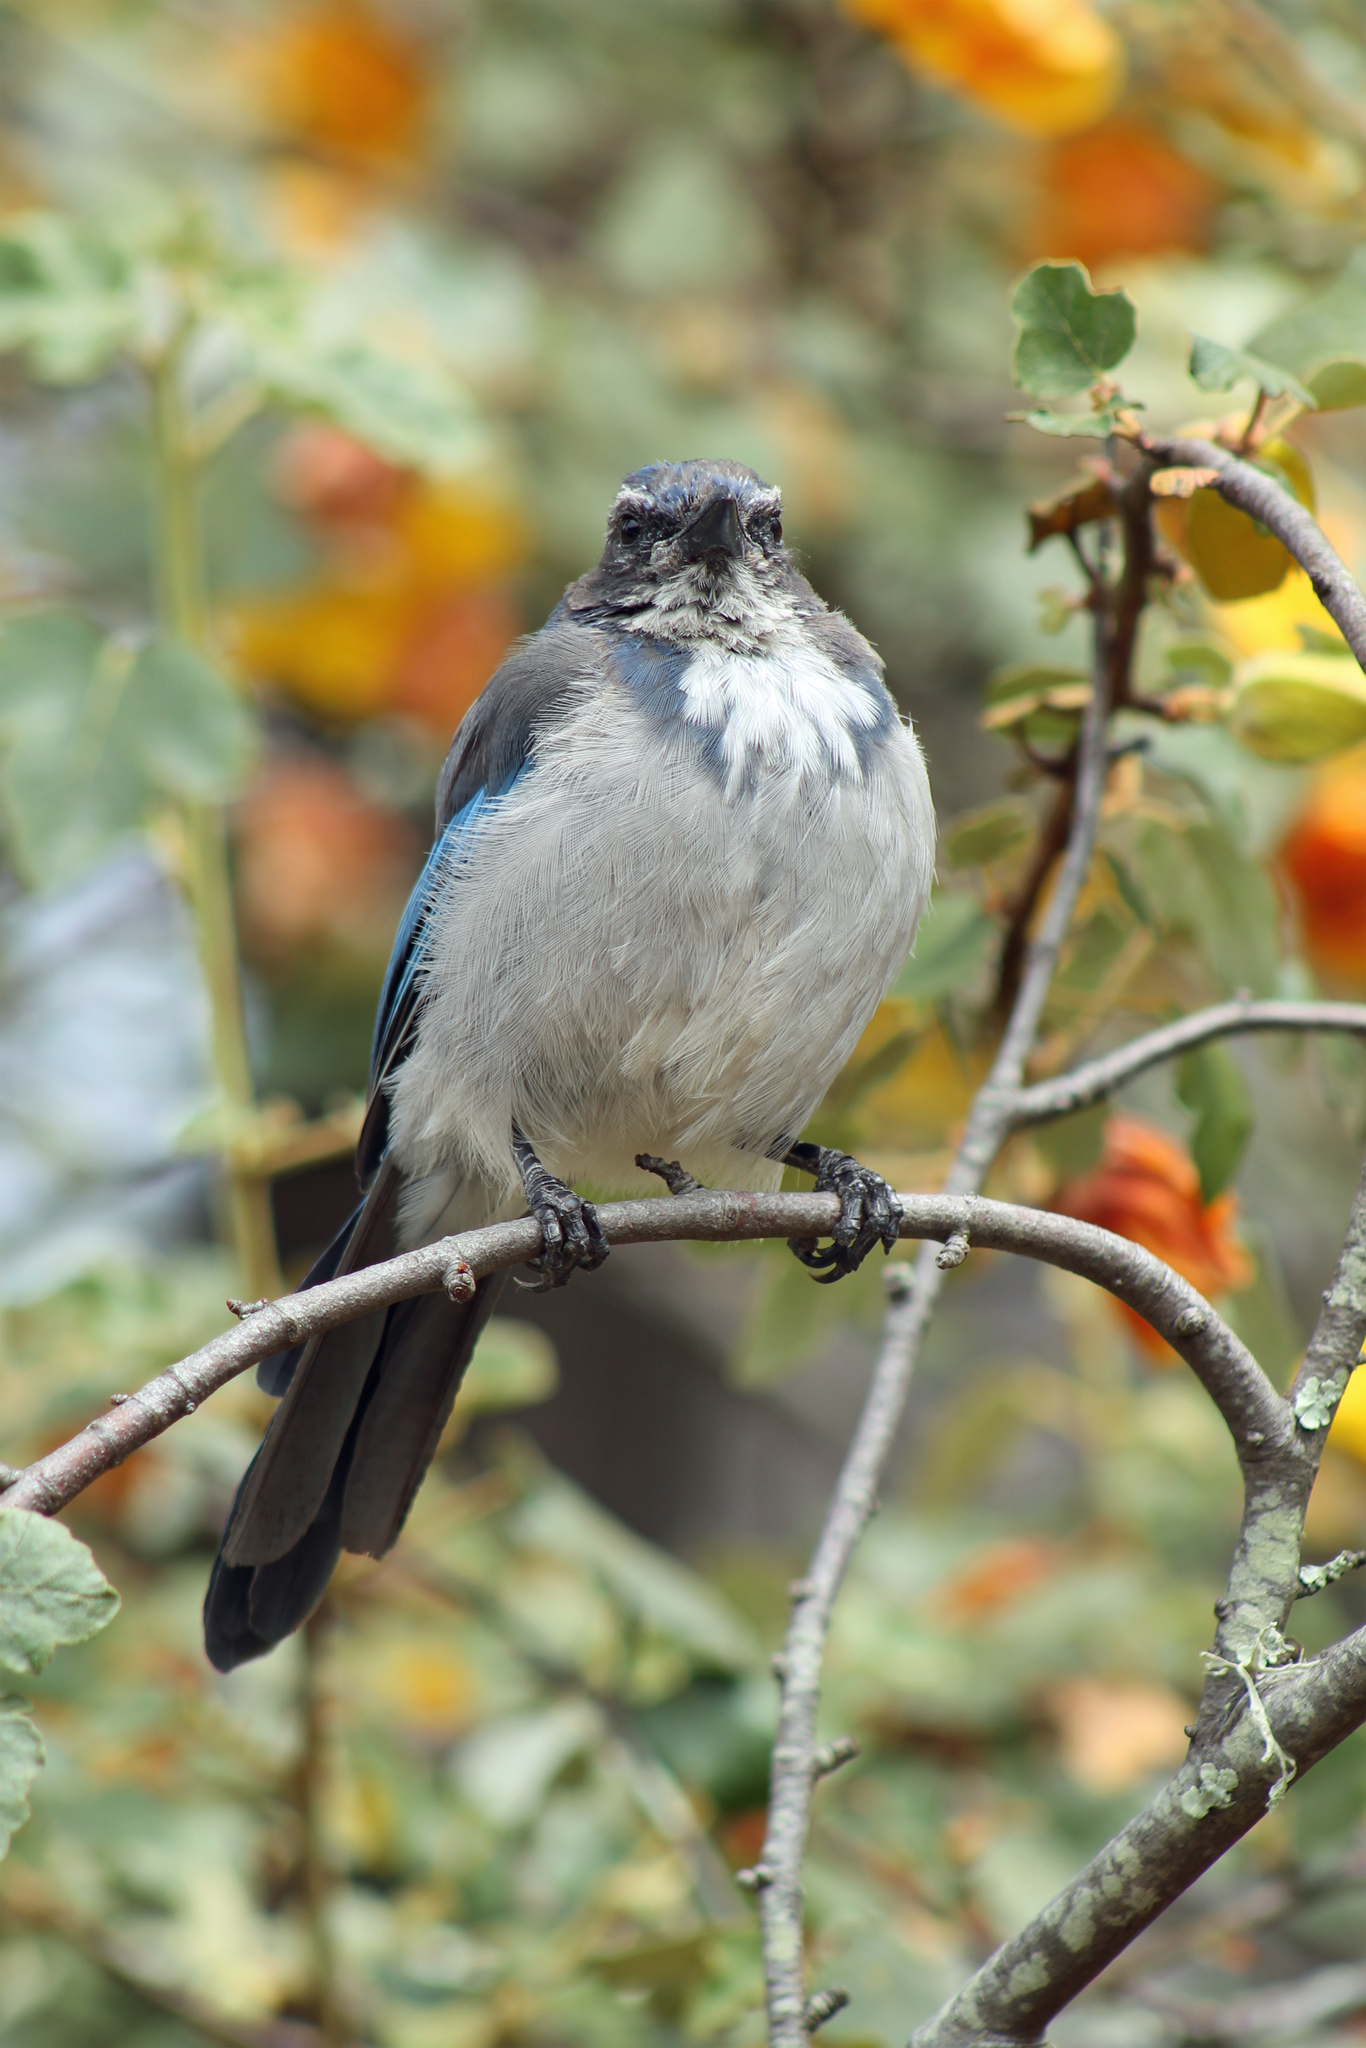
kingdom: Animalia
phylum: Chordata
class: Aves
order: Passeriformes
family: Corvidae
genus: Aphelocoma
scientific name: Aphelocoma californica
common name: California scrub-jay
